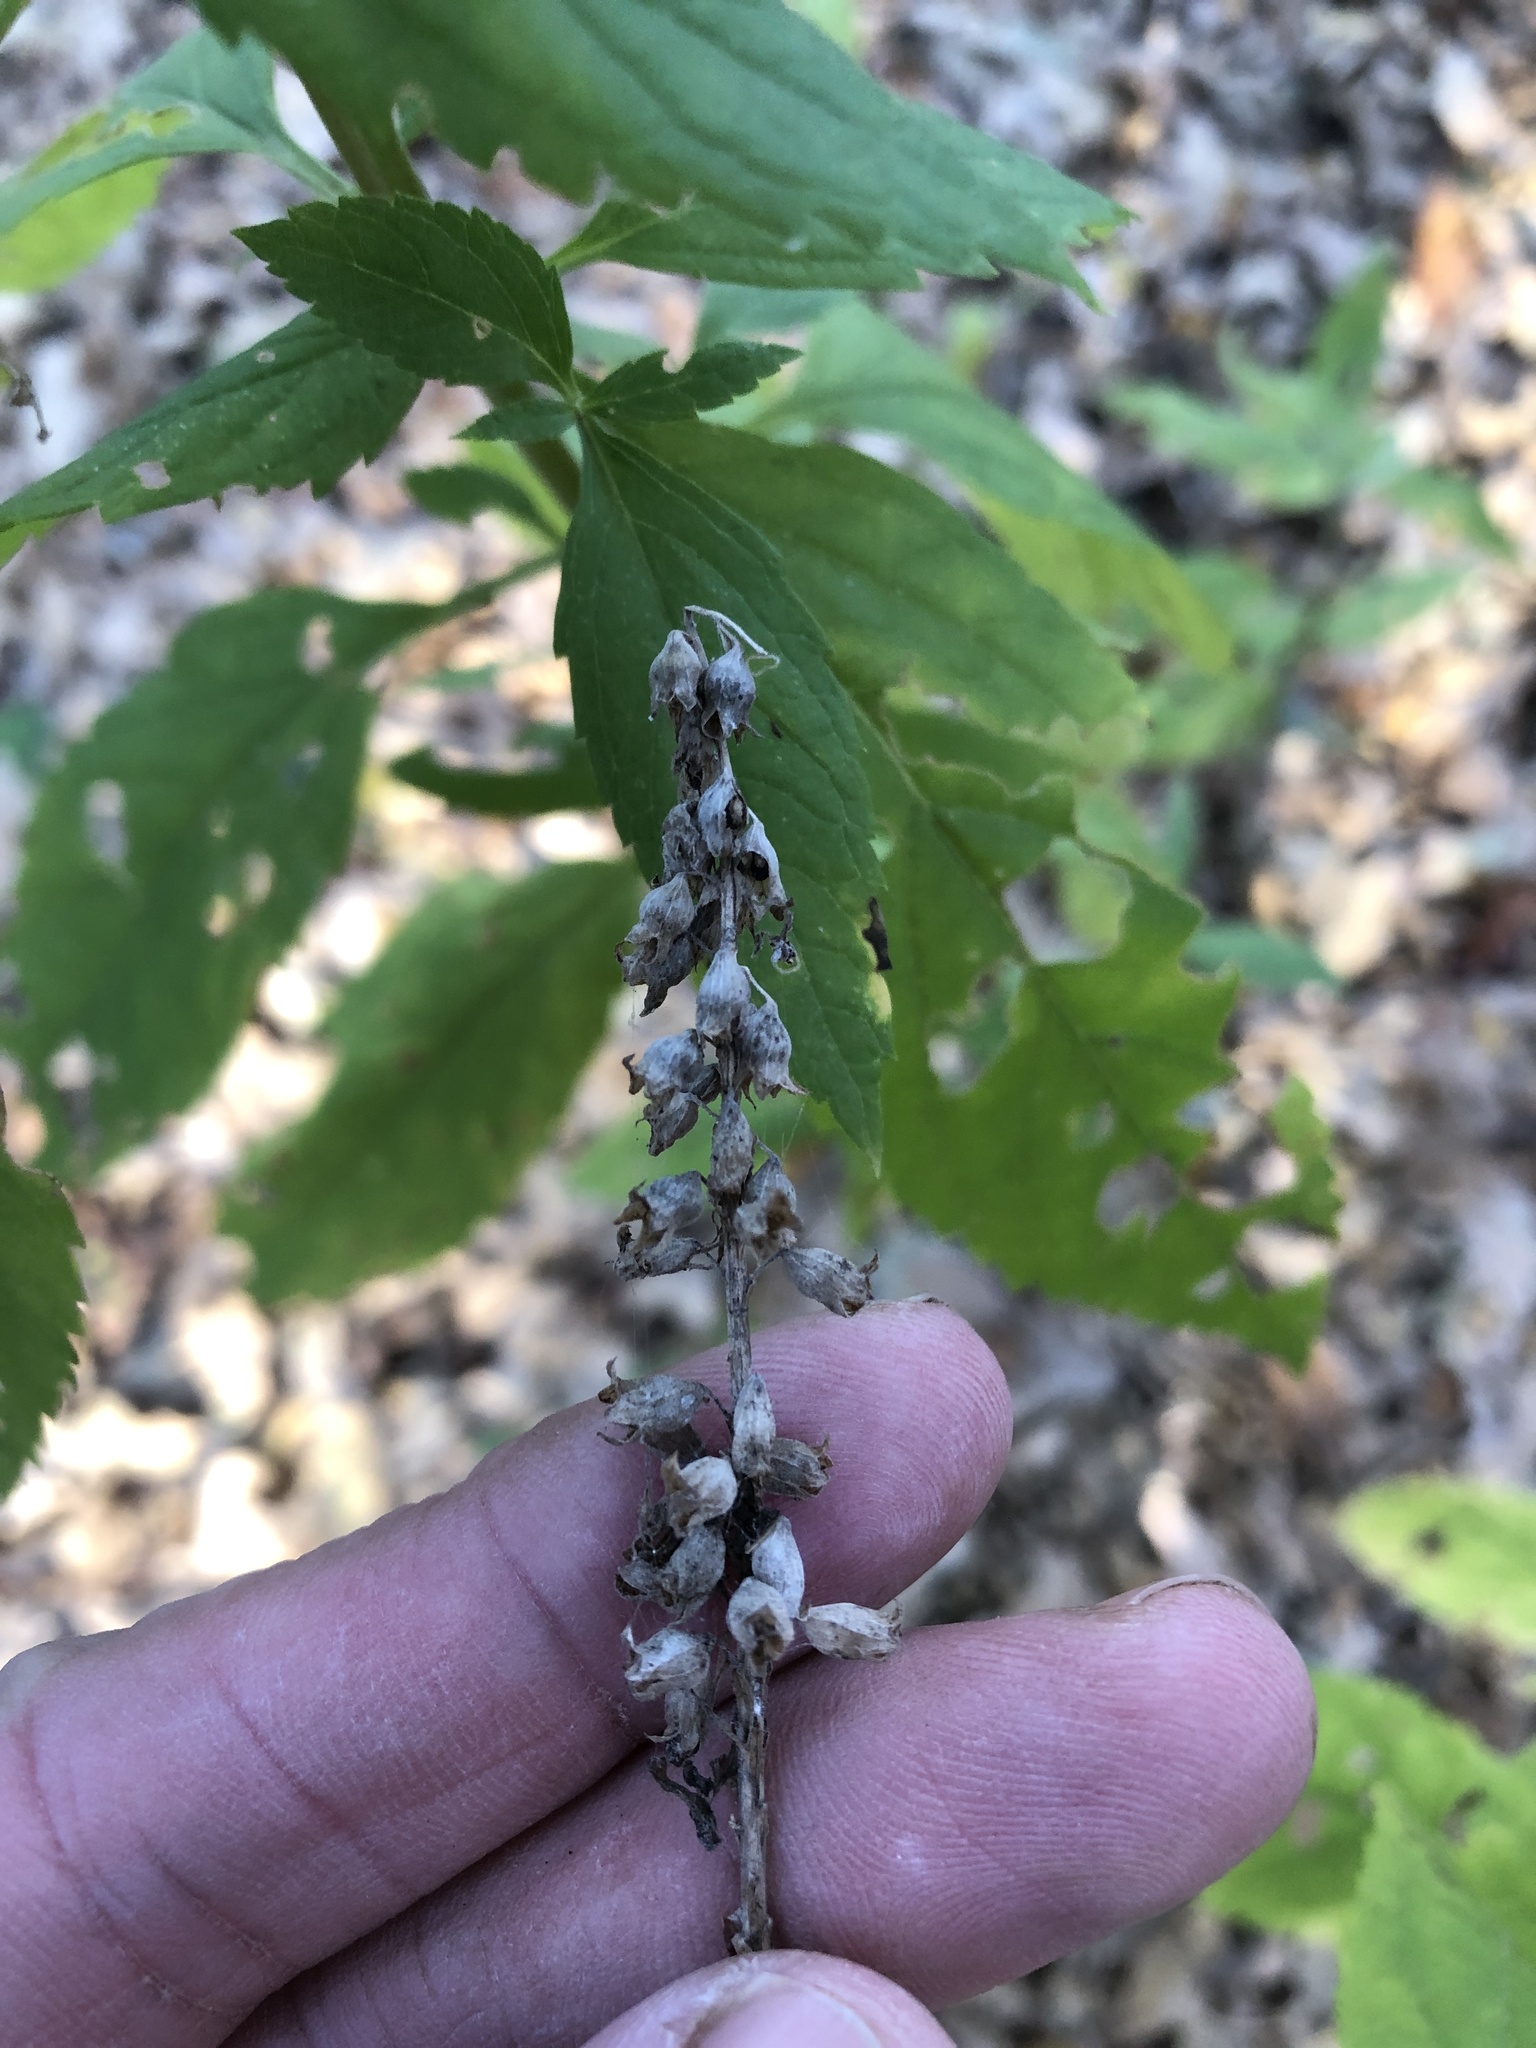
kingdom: Plantae
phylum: Tracheophyta
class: Magnoliopsida
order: Lamiales
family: Lamiaceae
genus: Teucrium
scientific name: Teucrium canadense
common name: American germander
